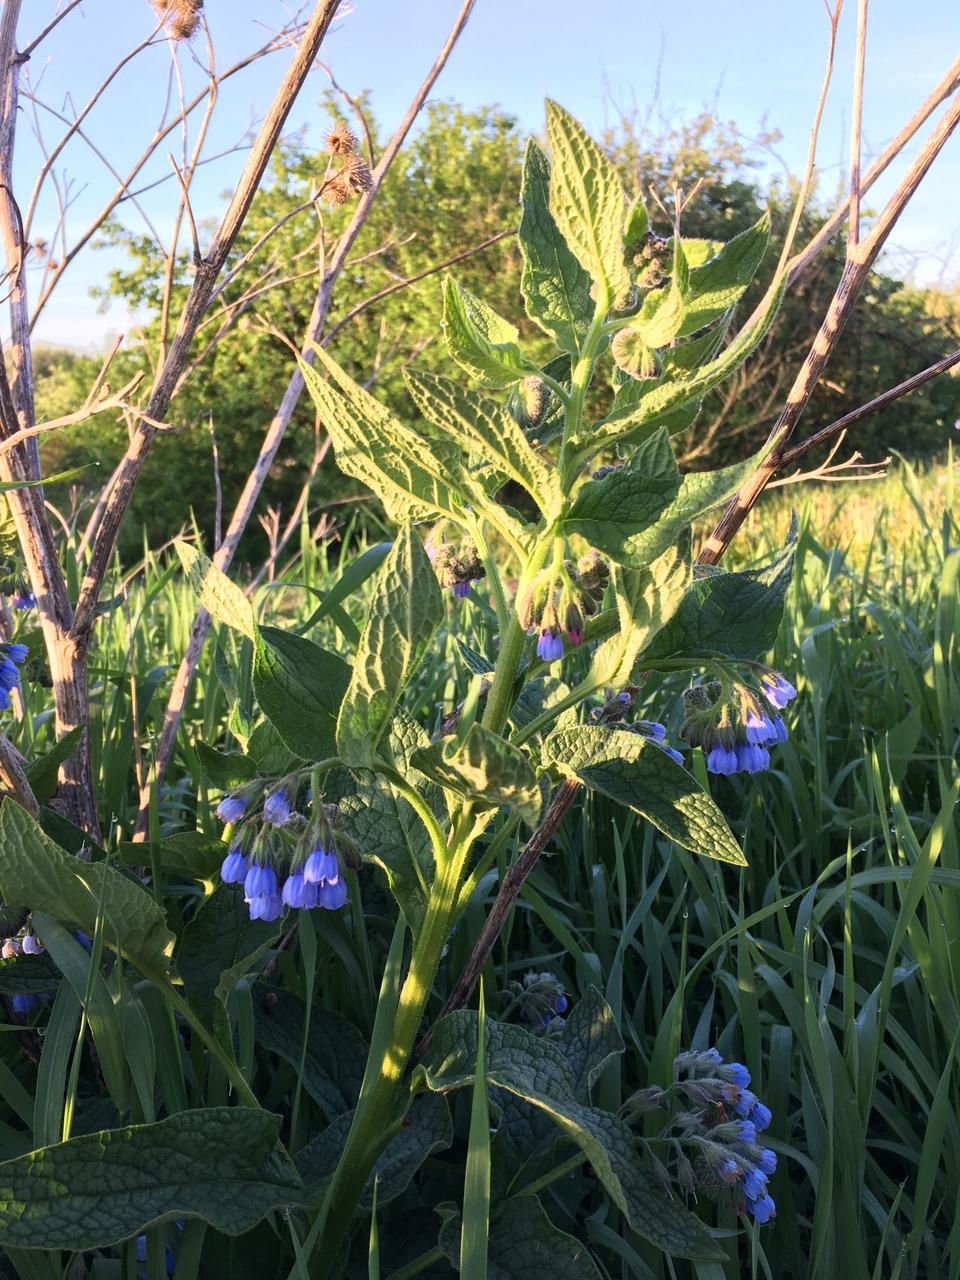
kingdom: Plantae
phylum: Tracheophyta
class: Magnoliopsida
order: Boraginales
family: Boraginaceae
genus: Symphytum
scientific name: Symphytum caucasicum
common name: Caucasian comfrey
